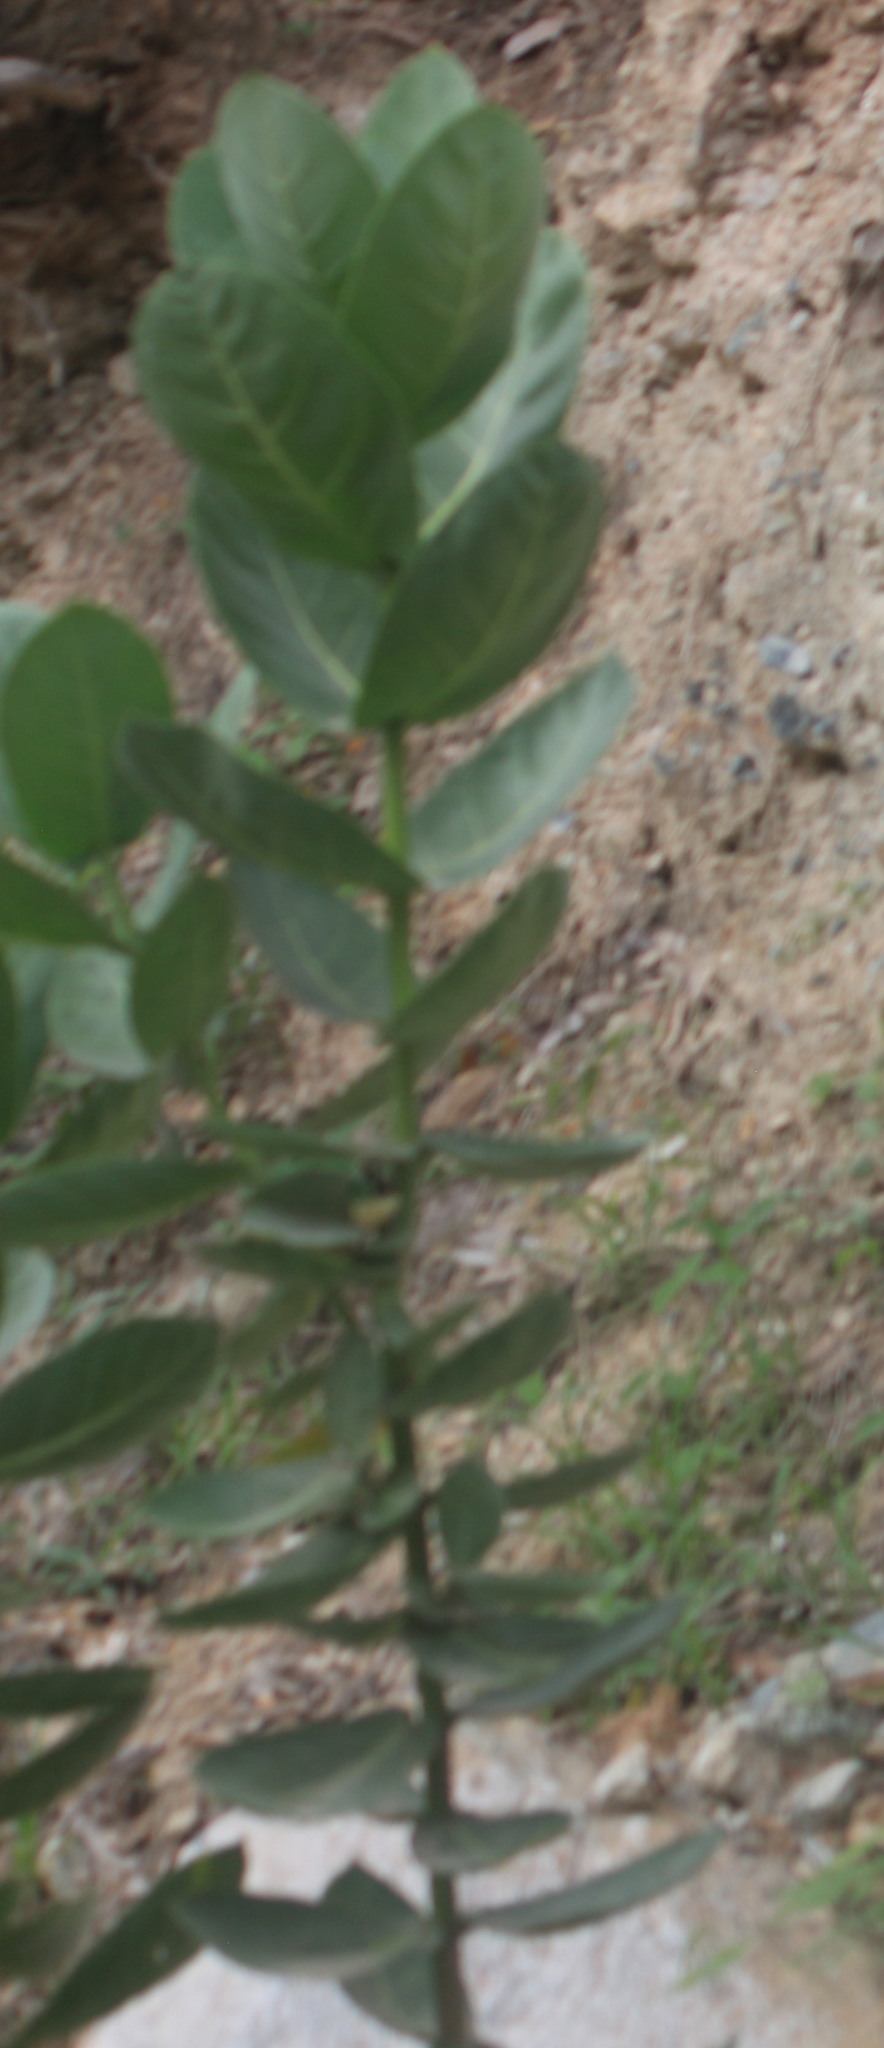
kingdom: Plantae
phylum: Tracheophyta
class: Magnoliopsida
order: Gentianales
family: Apocynaceae
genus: Calotropis
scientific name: Calotropis procera
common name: Roostertree
